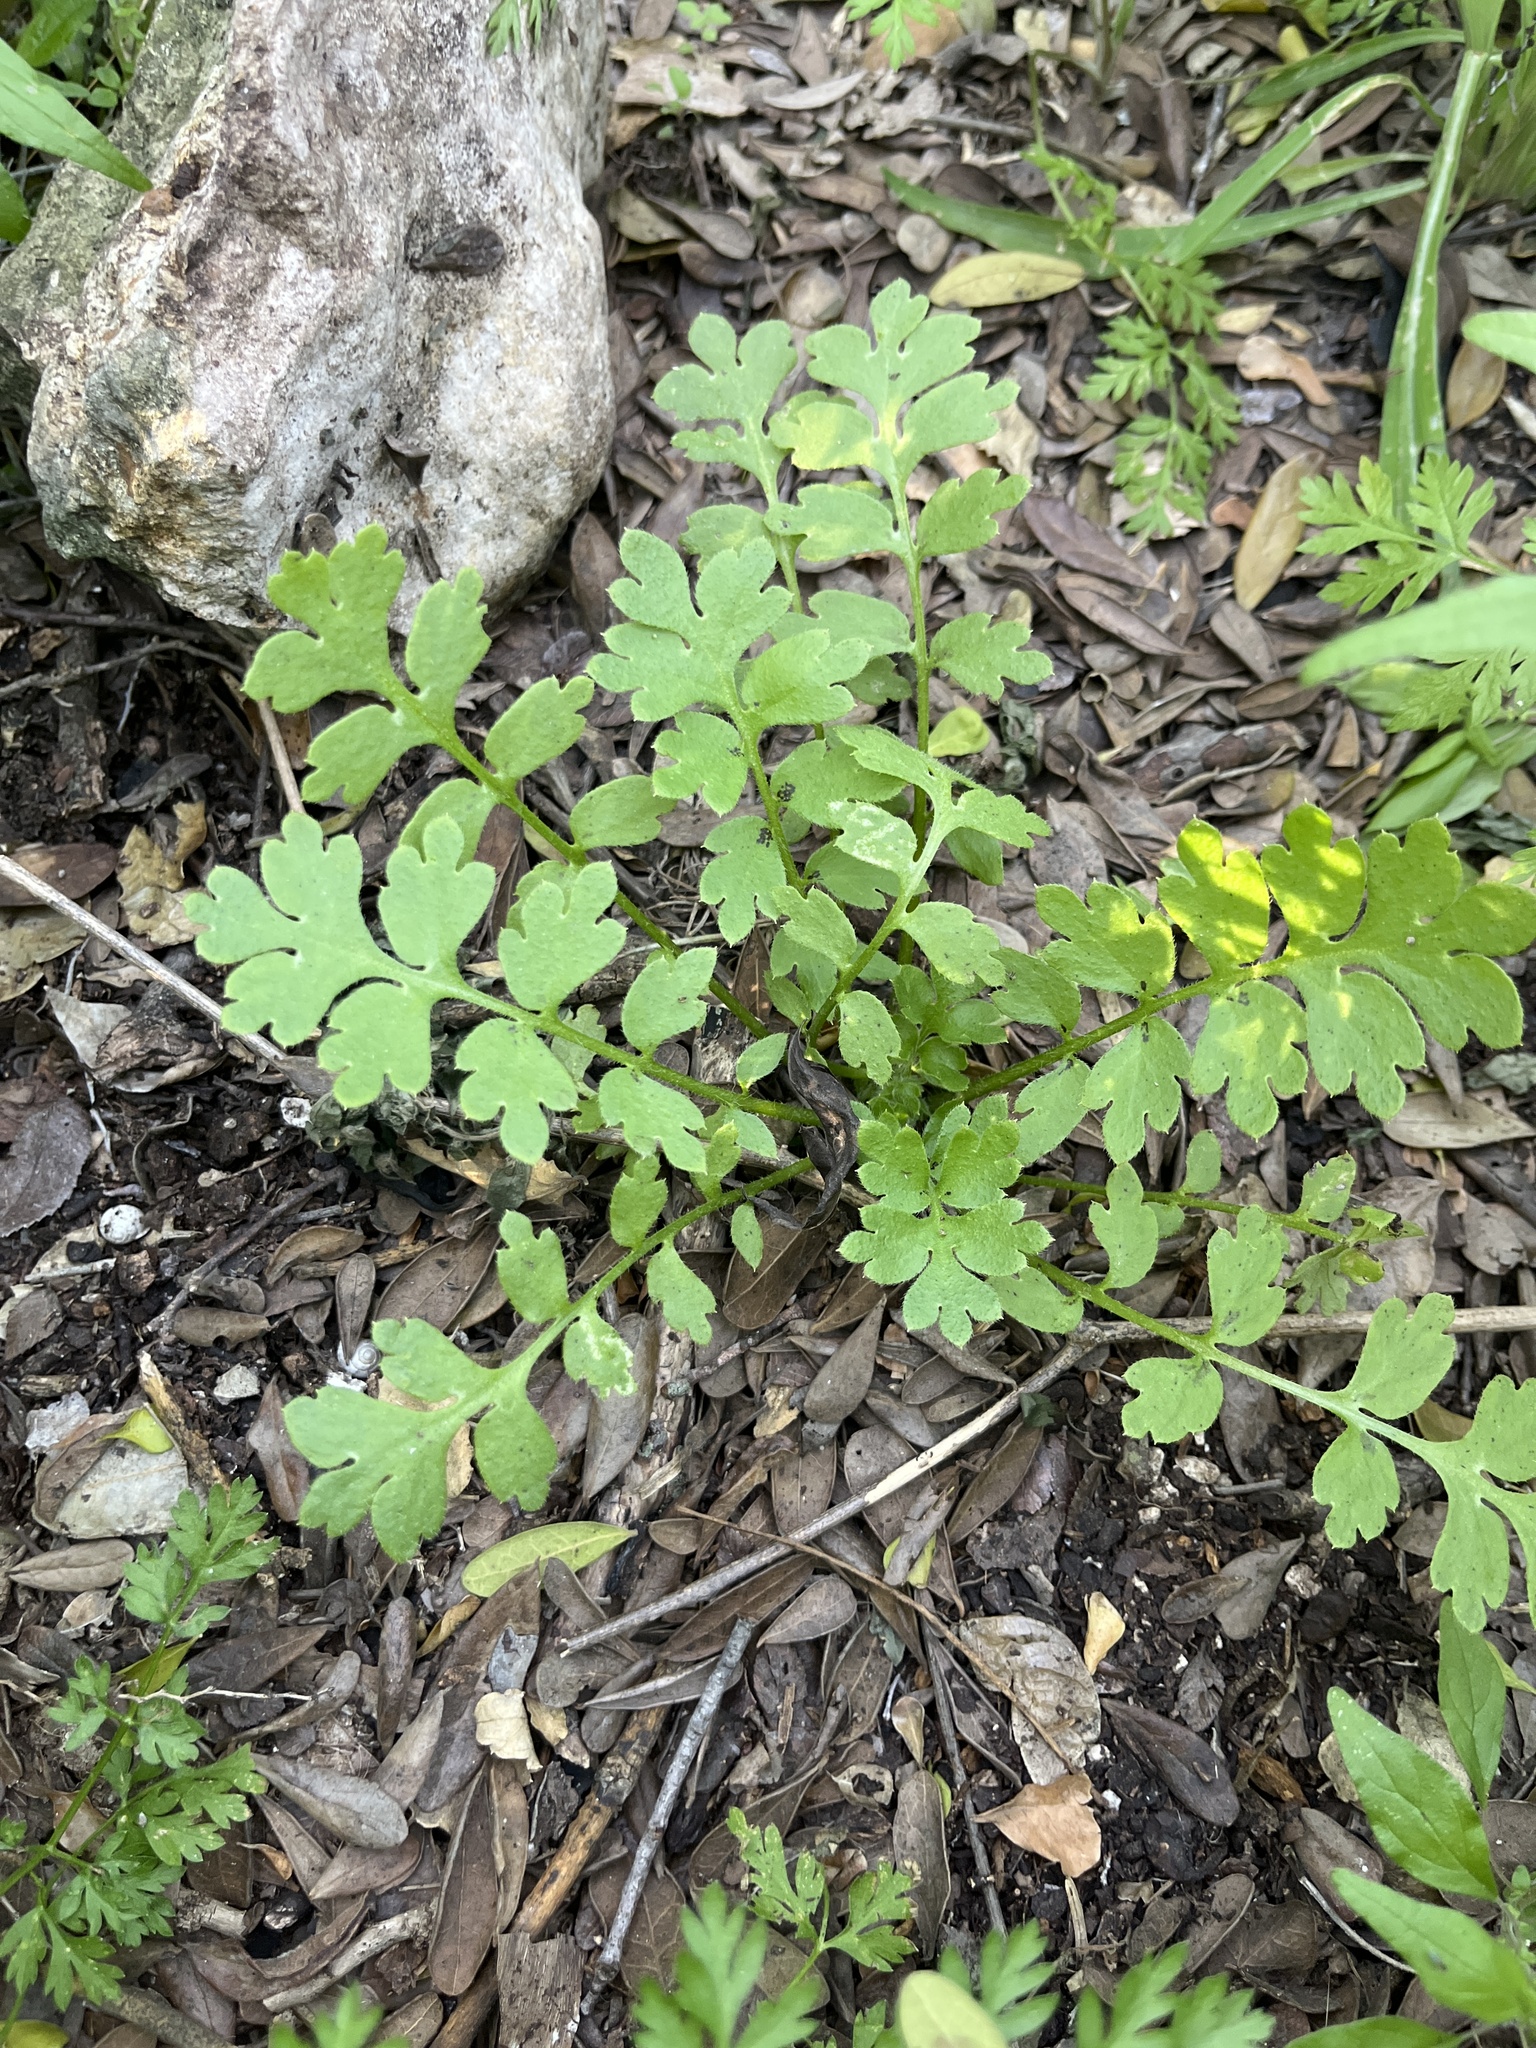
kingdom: Plantae
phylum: Tracheophyta
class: Magnoliopsida
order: Boraginales
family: Hydrophyllaceae
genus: Nemophila
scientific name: Nemophila phacelioides
